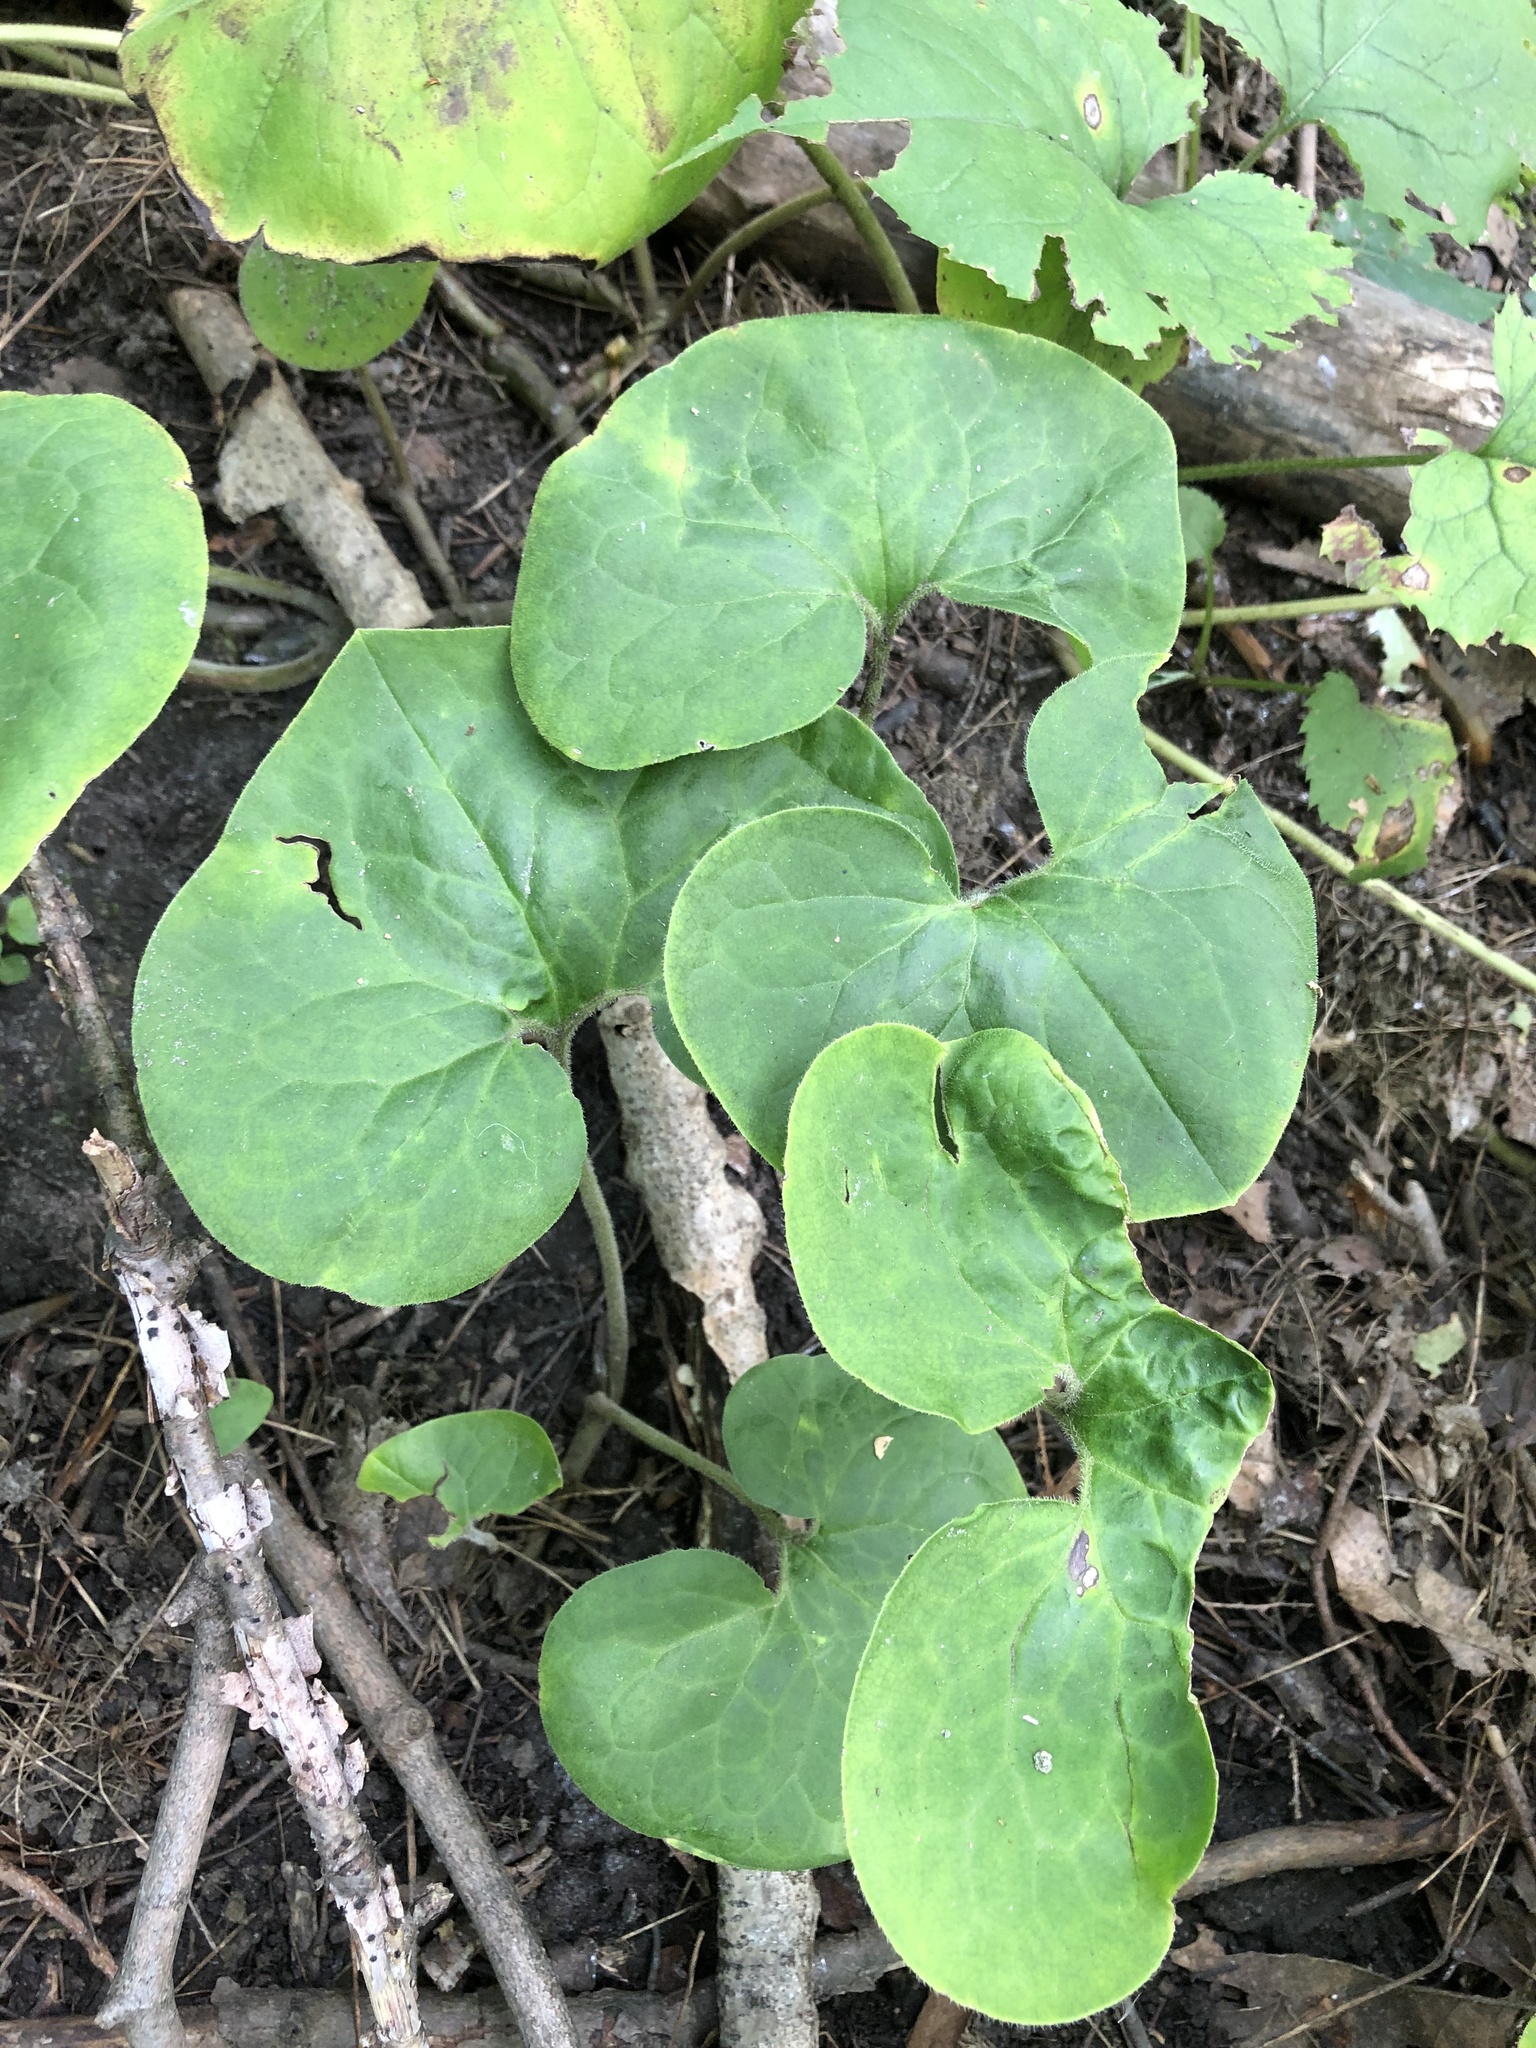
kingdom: Plantae
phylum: Tracheophyta
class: Magnoliopsida
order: Piperales
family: Aristolochiaceae
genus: Asarum
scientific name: Asarum canadense
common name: Wild ginger
